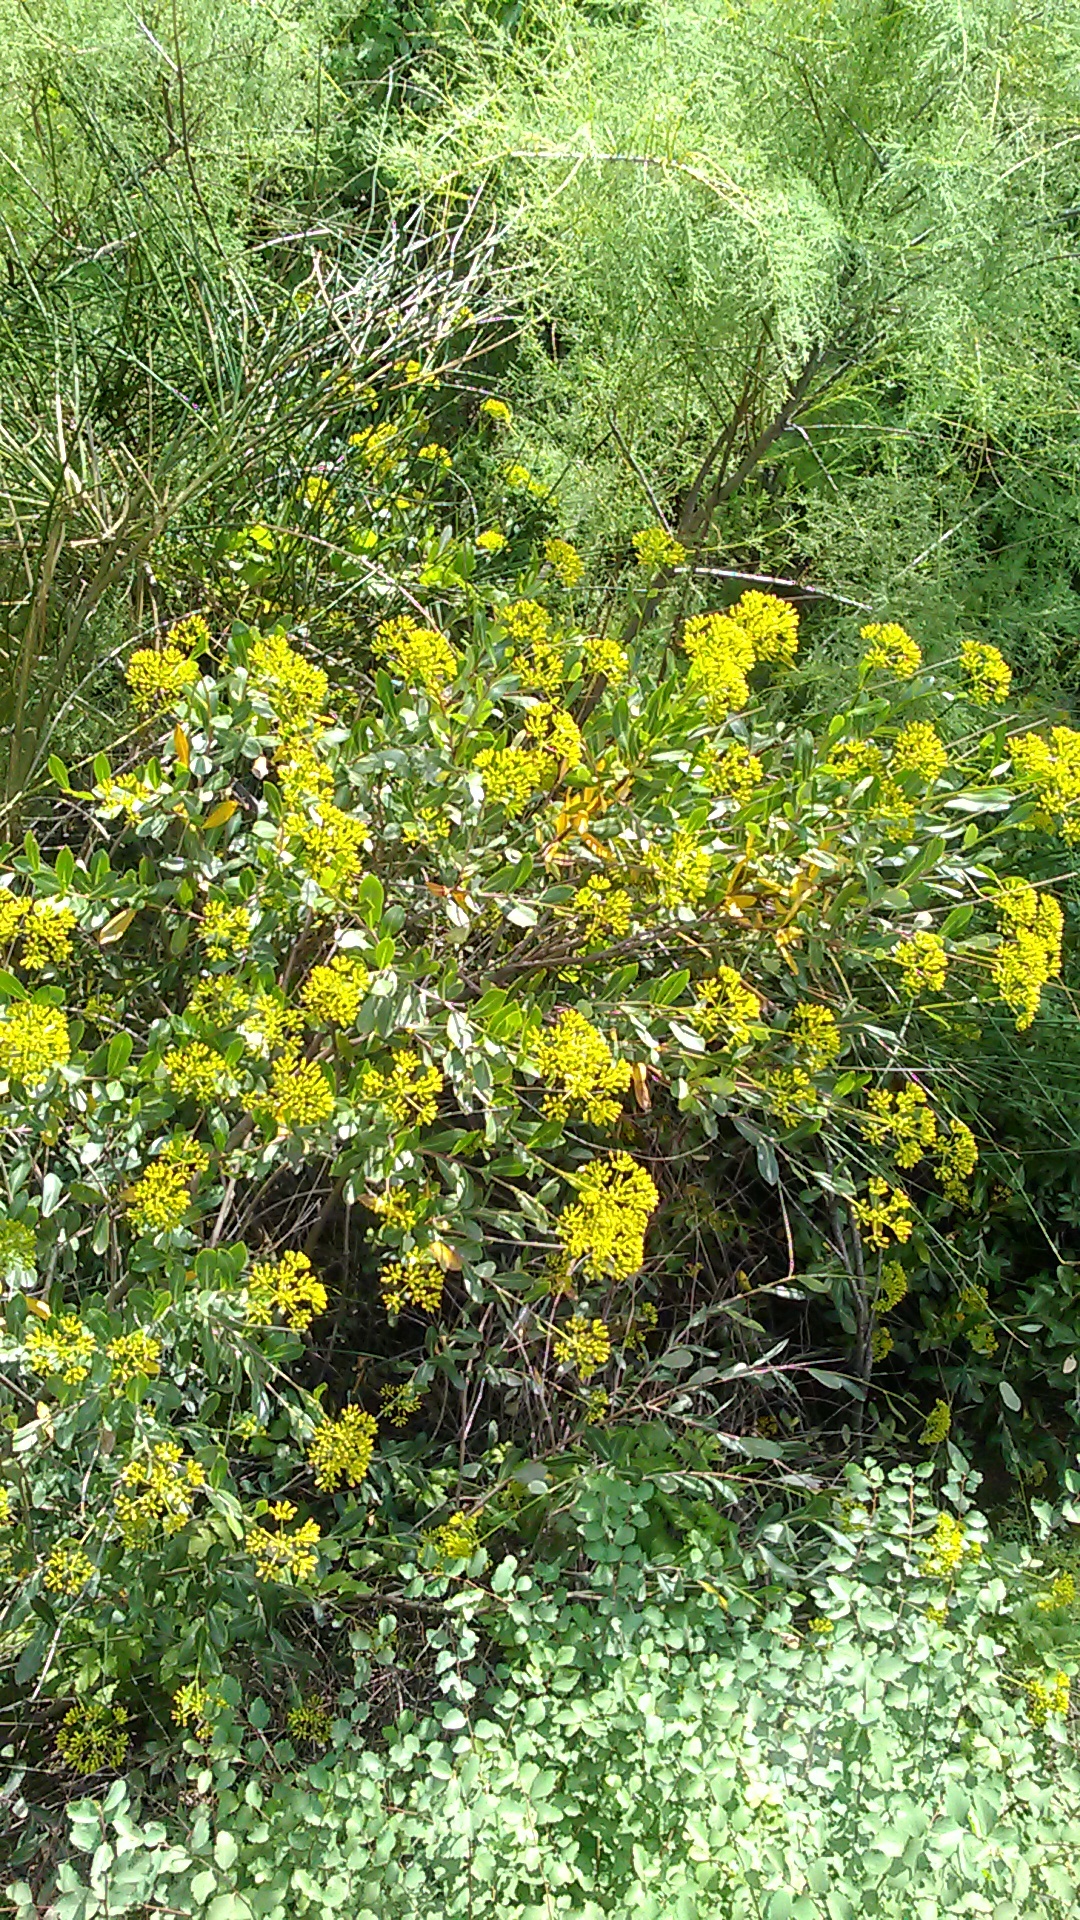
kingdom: Plantae
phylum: Tracheophyta
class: Magnoliopsida
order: Apiales
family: Apiaceae
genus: Bupleurum
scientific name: Bupleurum fruticosum
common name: Shrubby hare's-ear
